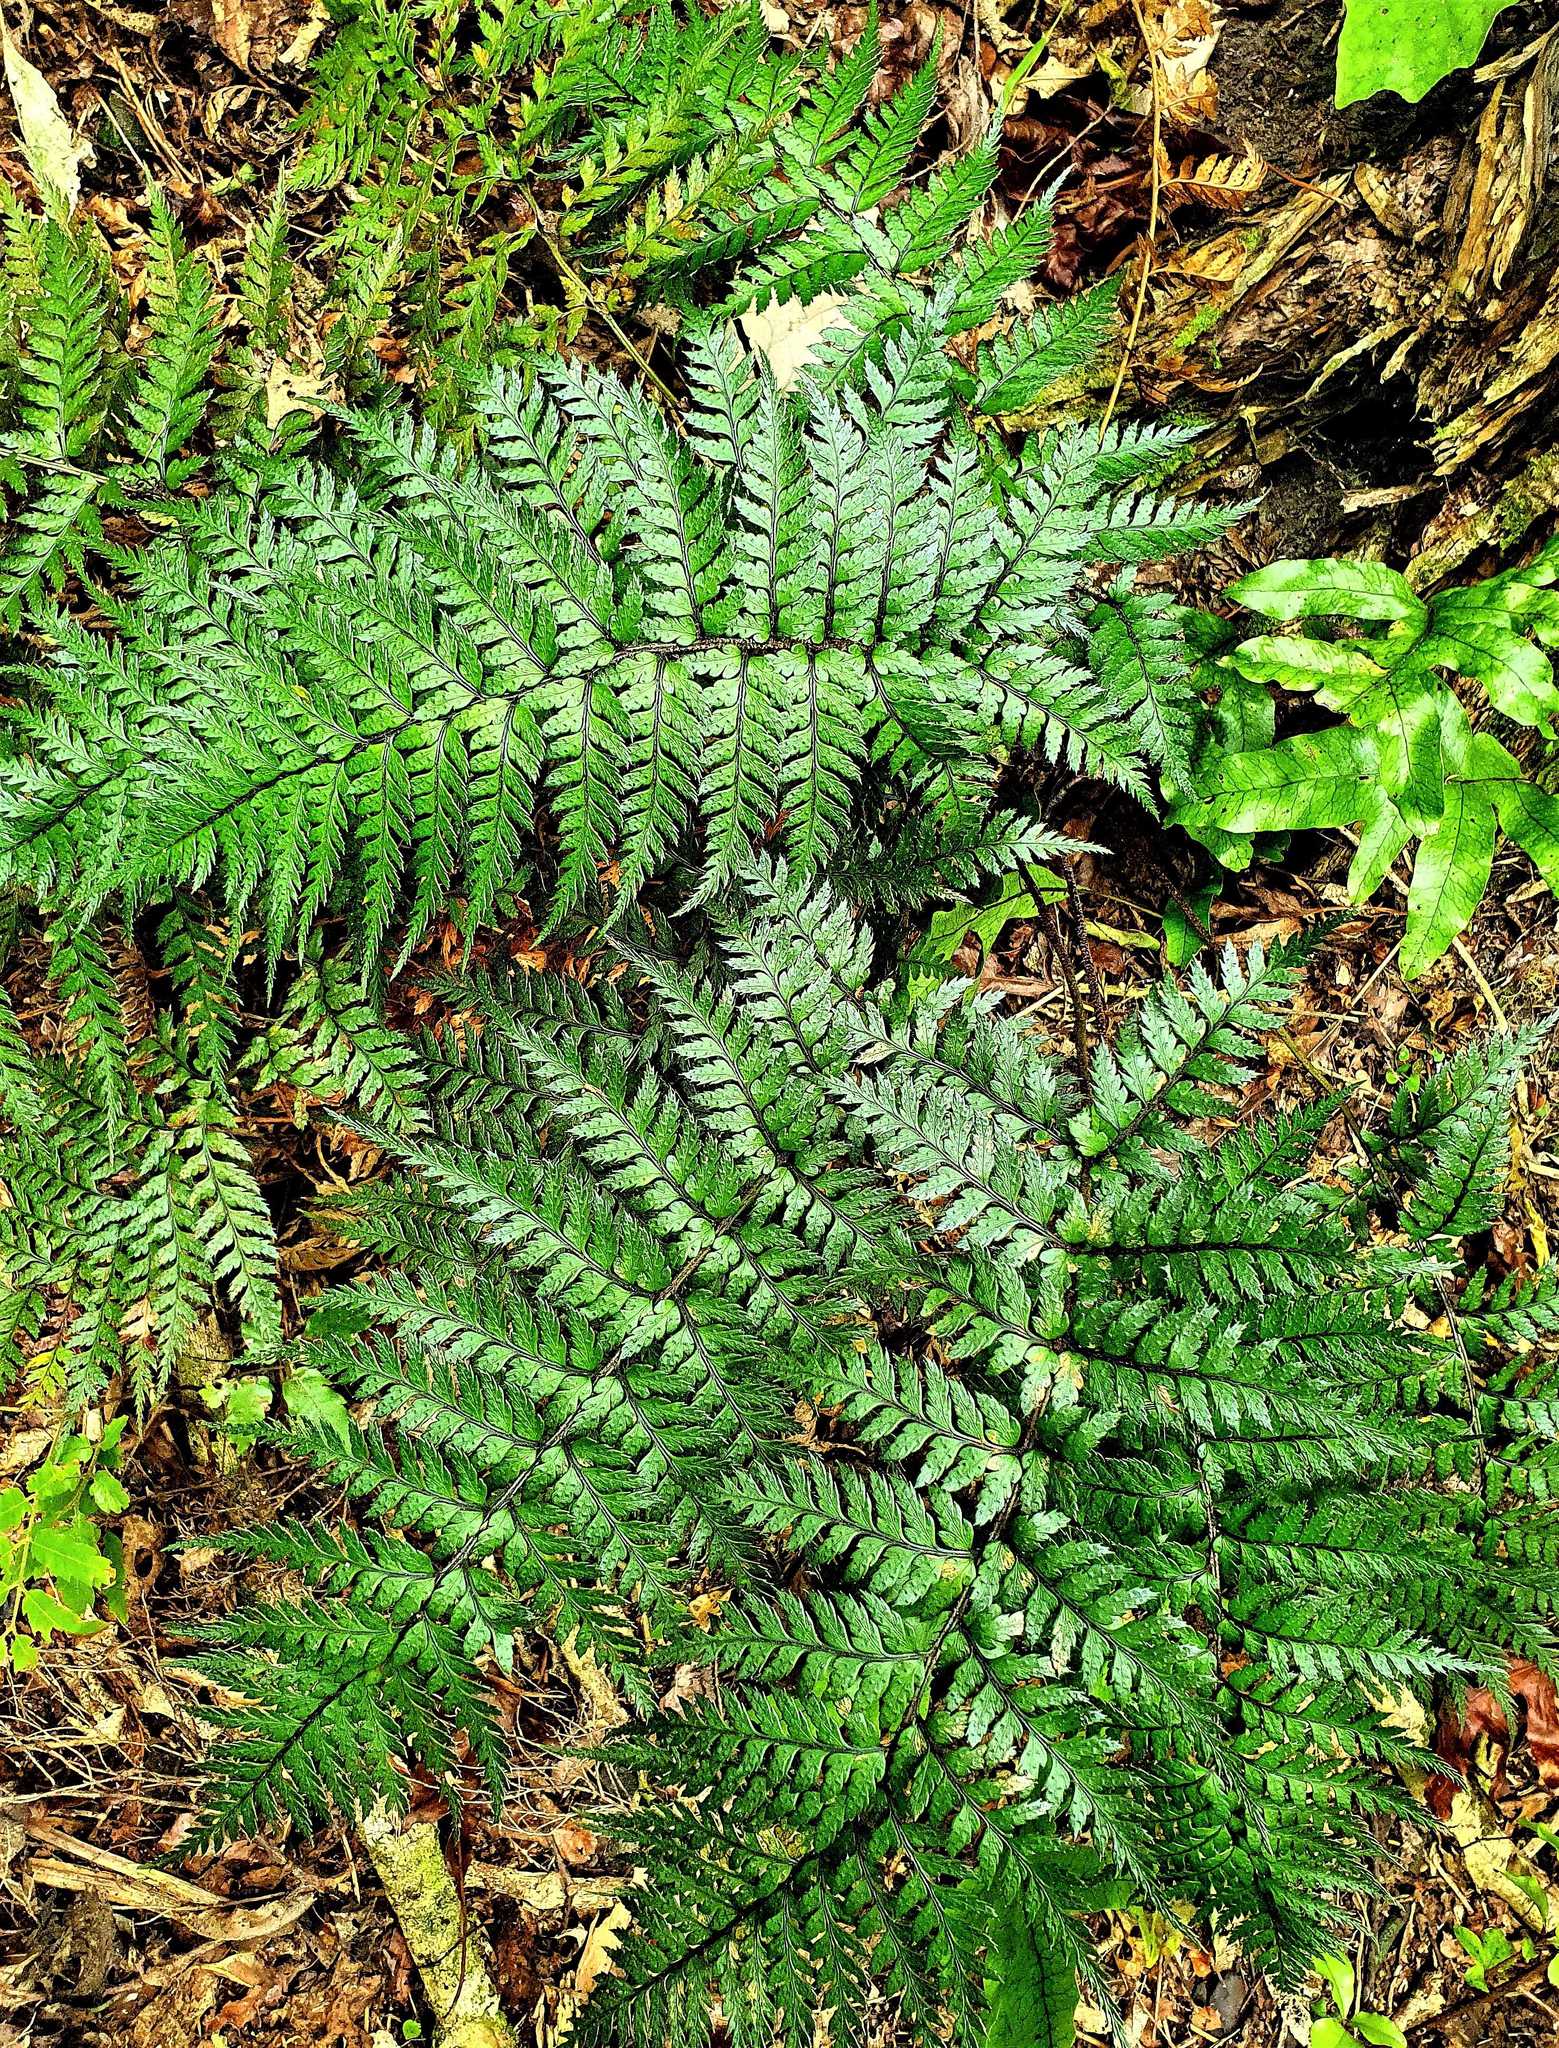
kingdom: Plantae
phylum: Tracheophyta
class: Polypodiopsida
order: Polypodiales
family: Dryopteridaceae
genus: Polystichum
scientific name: Polystichum neozelandicum
